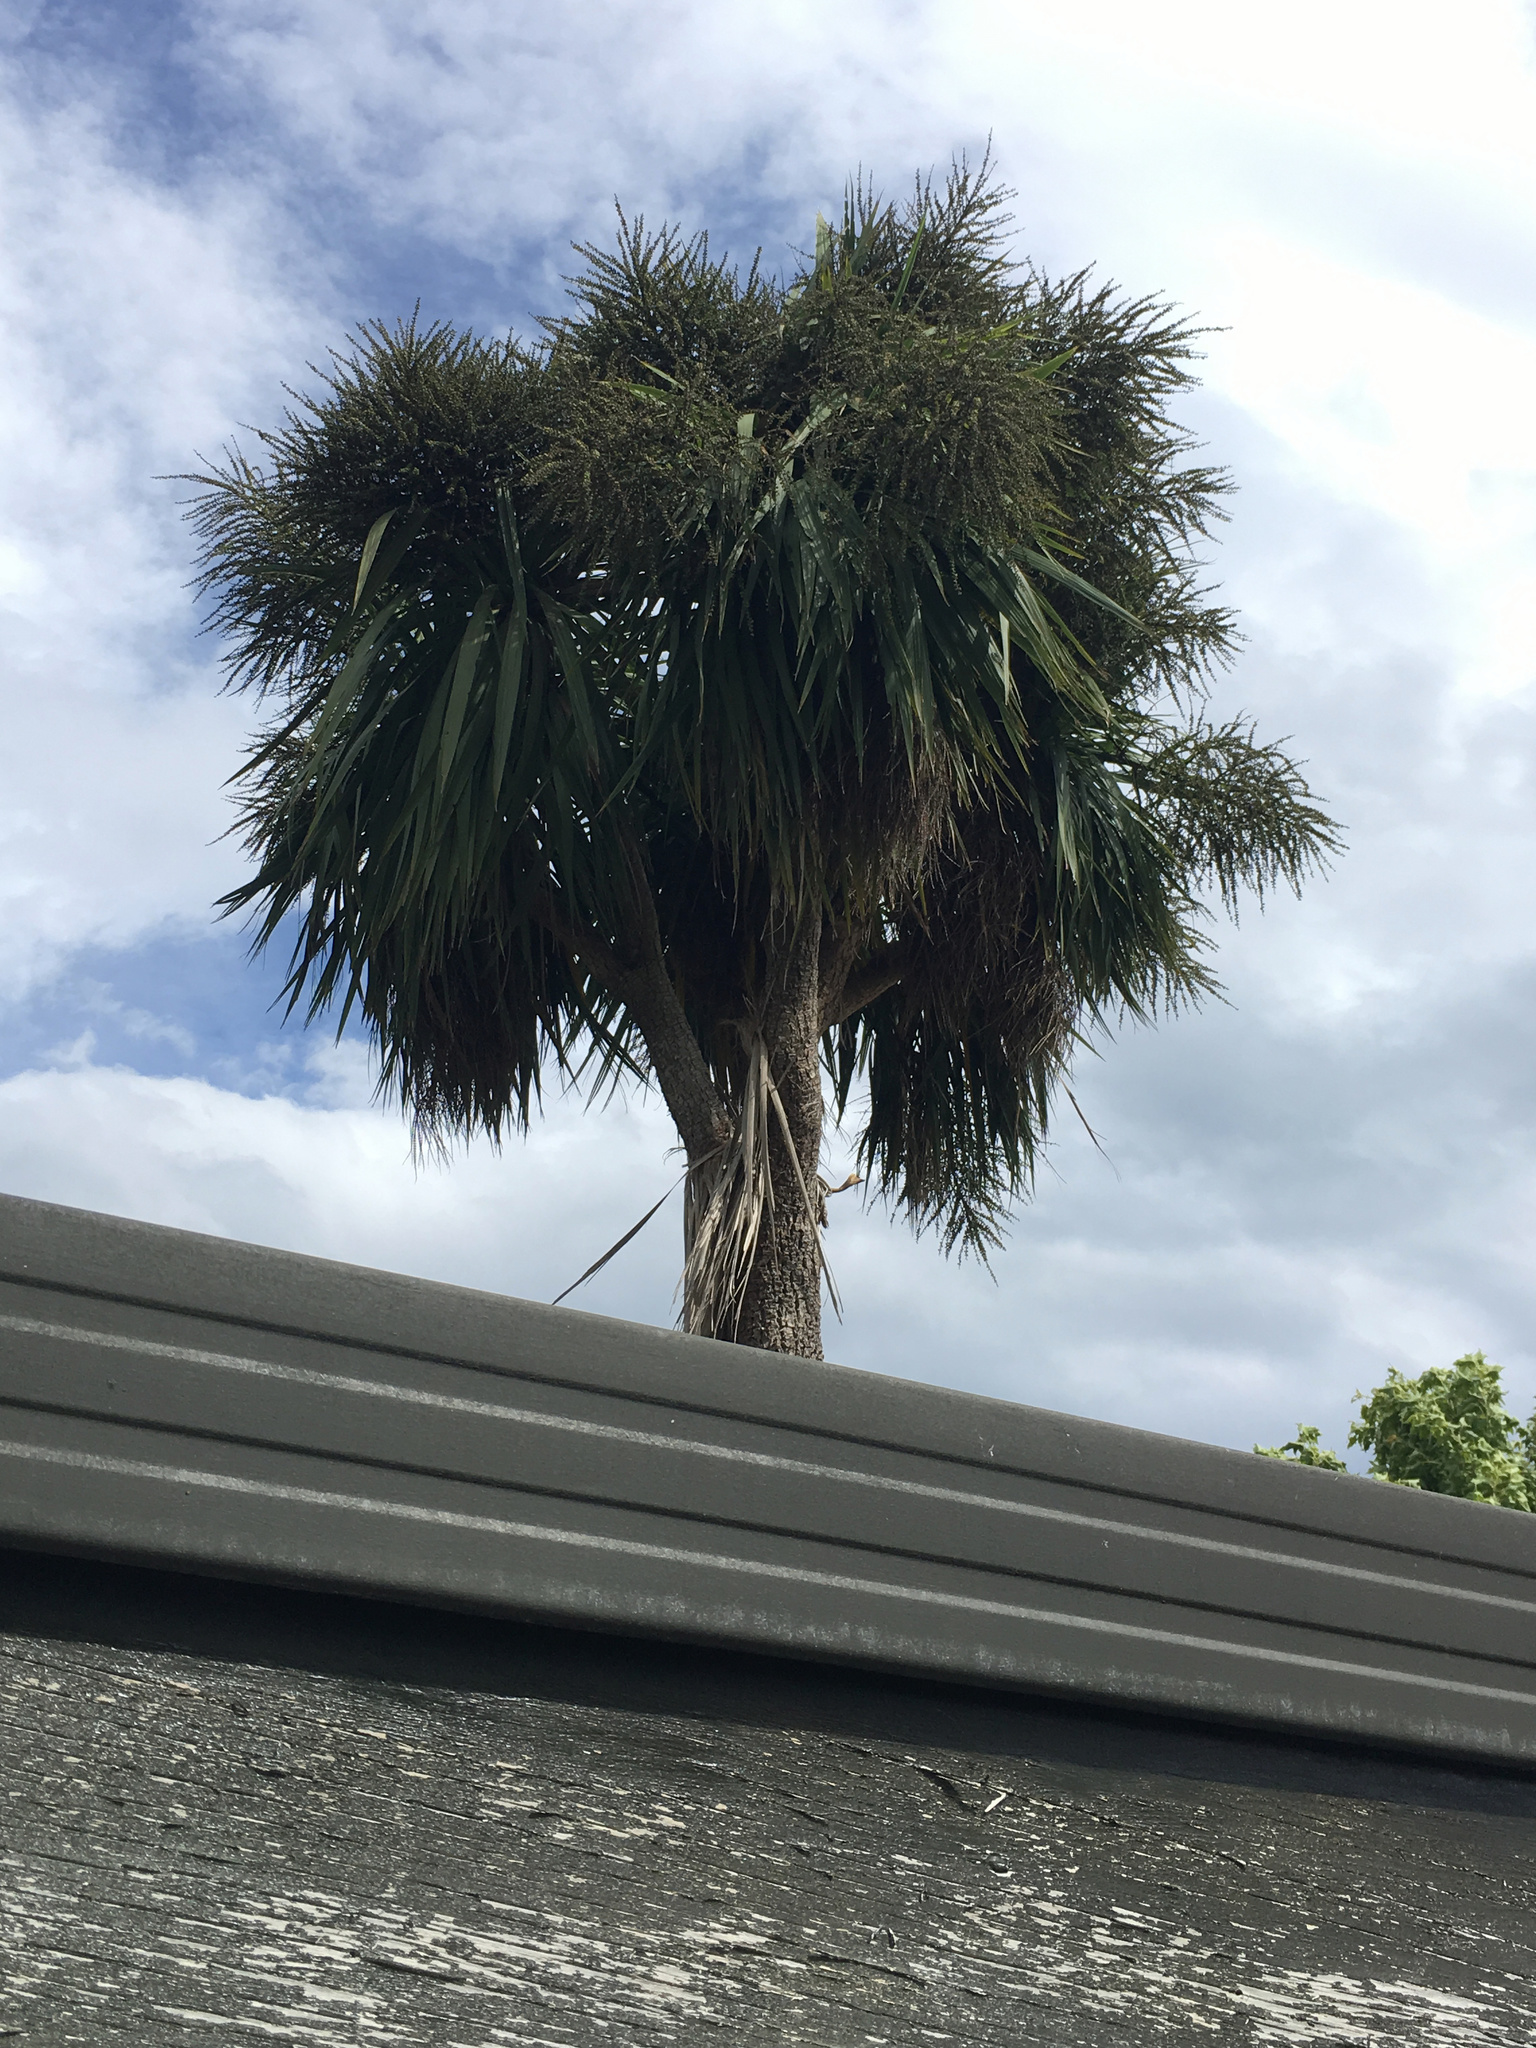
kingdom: Plantae
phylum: Tracheophyta
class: Liliopsida
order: Asparagales
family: Asparagaceae
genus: Cordyline
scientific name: Cordyline australis
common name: Cabbage-palm
